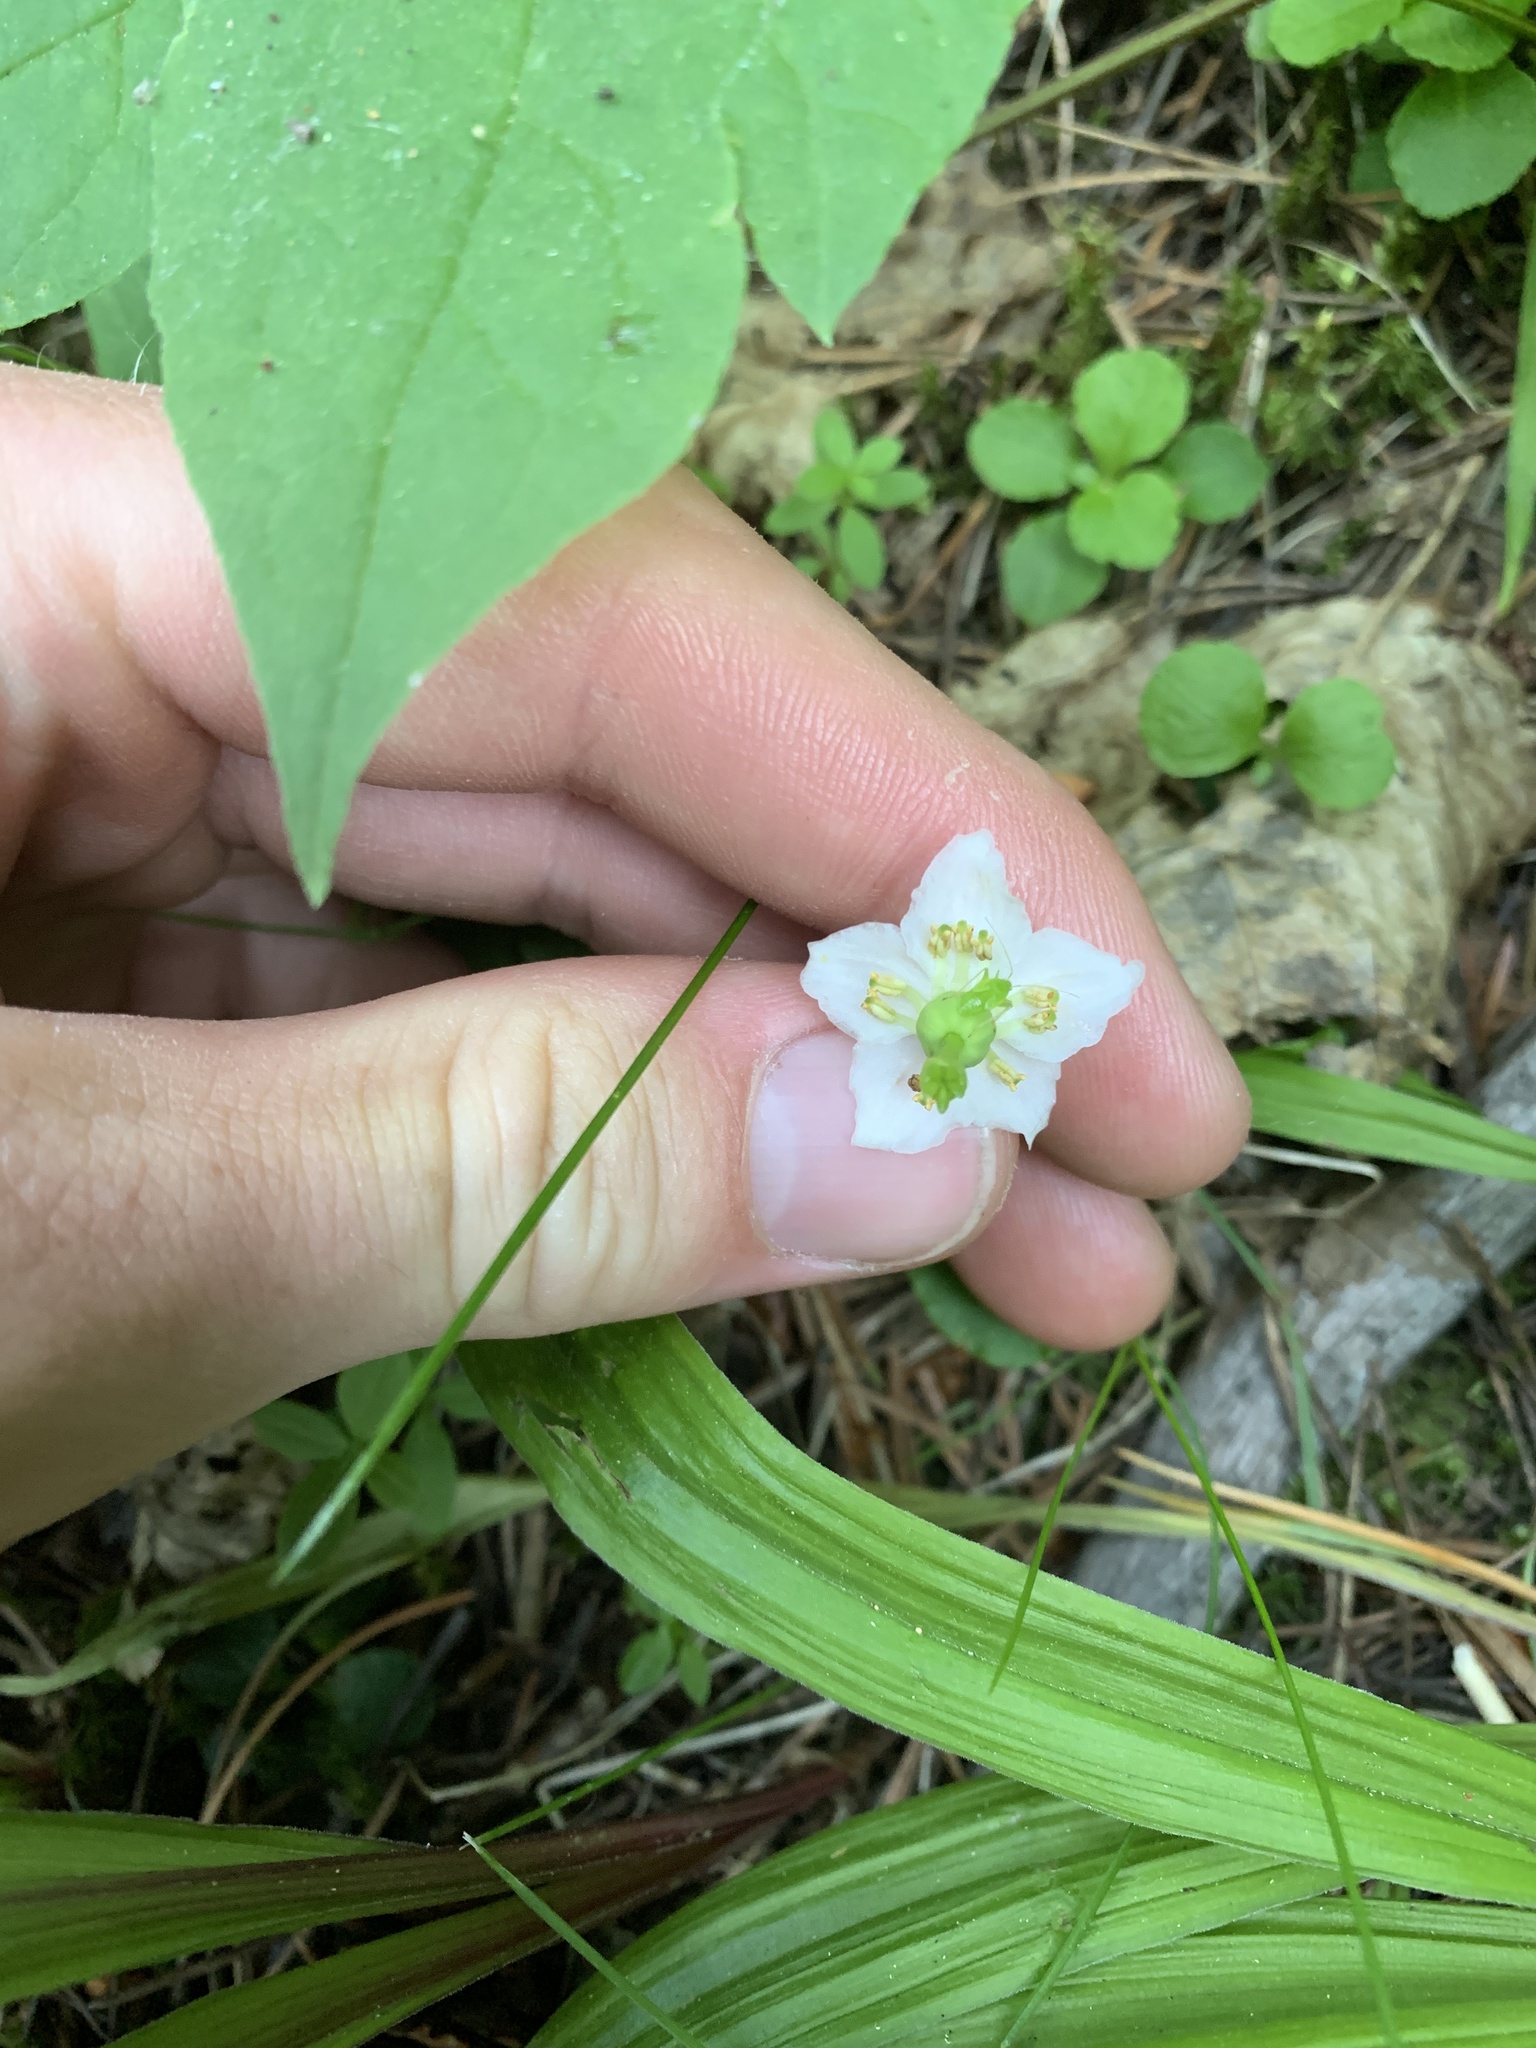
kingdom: Plantae
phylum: Tracheophyta
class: Magnoliopsida
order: Ericales
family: Ericaceae
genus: Moneses
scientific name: Moneses uniflora
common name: One-flowered wintergreen
